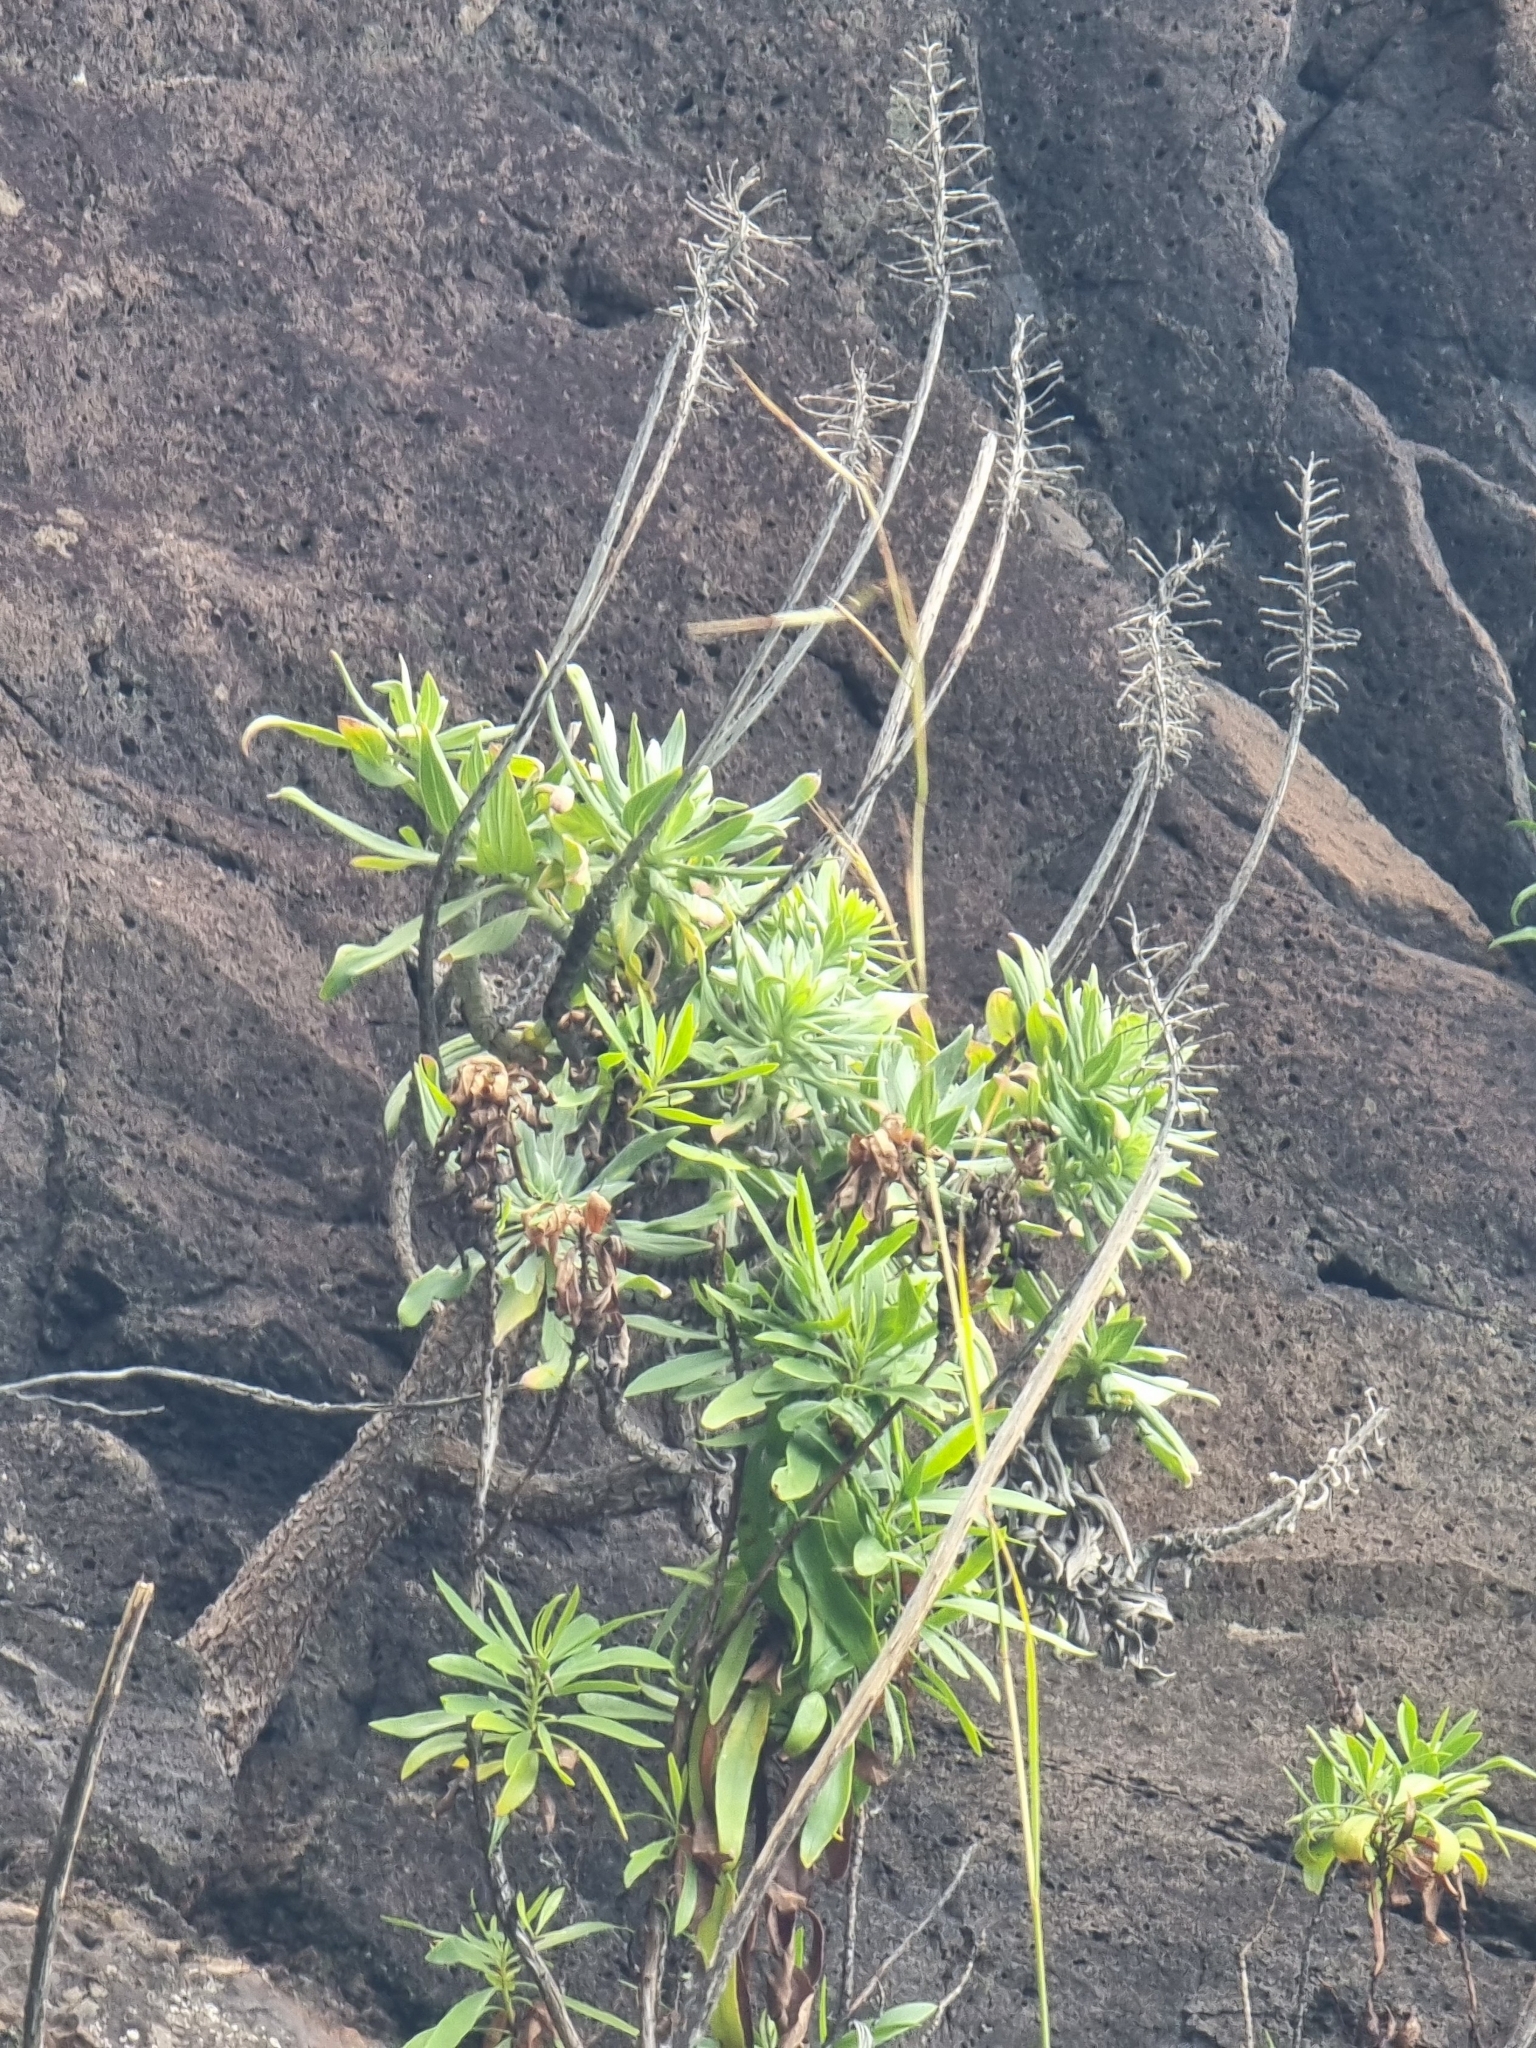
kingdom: Plantae
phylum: Tracheophyta
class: Magnoliopsida
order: Boraginales
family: Boraginaceae
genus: Echium
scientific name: Echium nervosum
